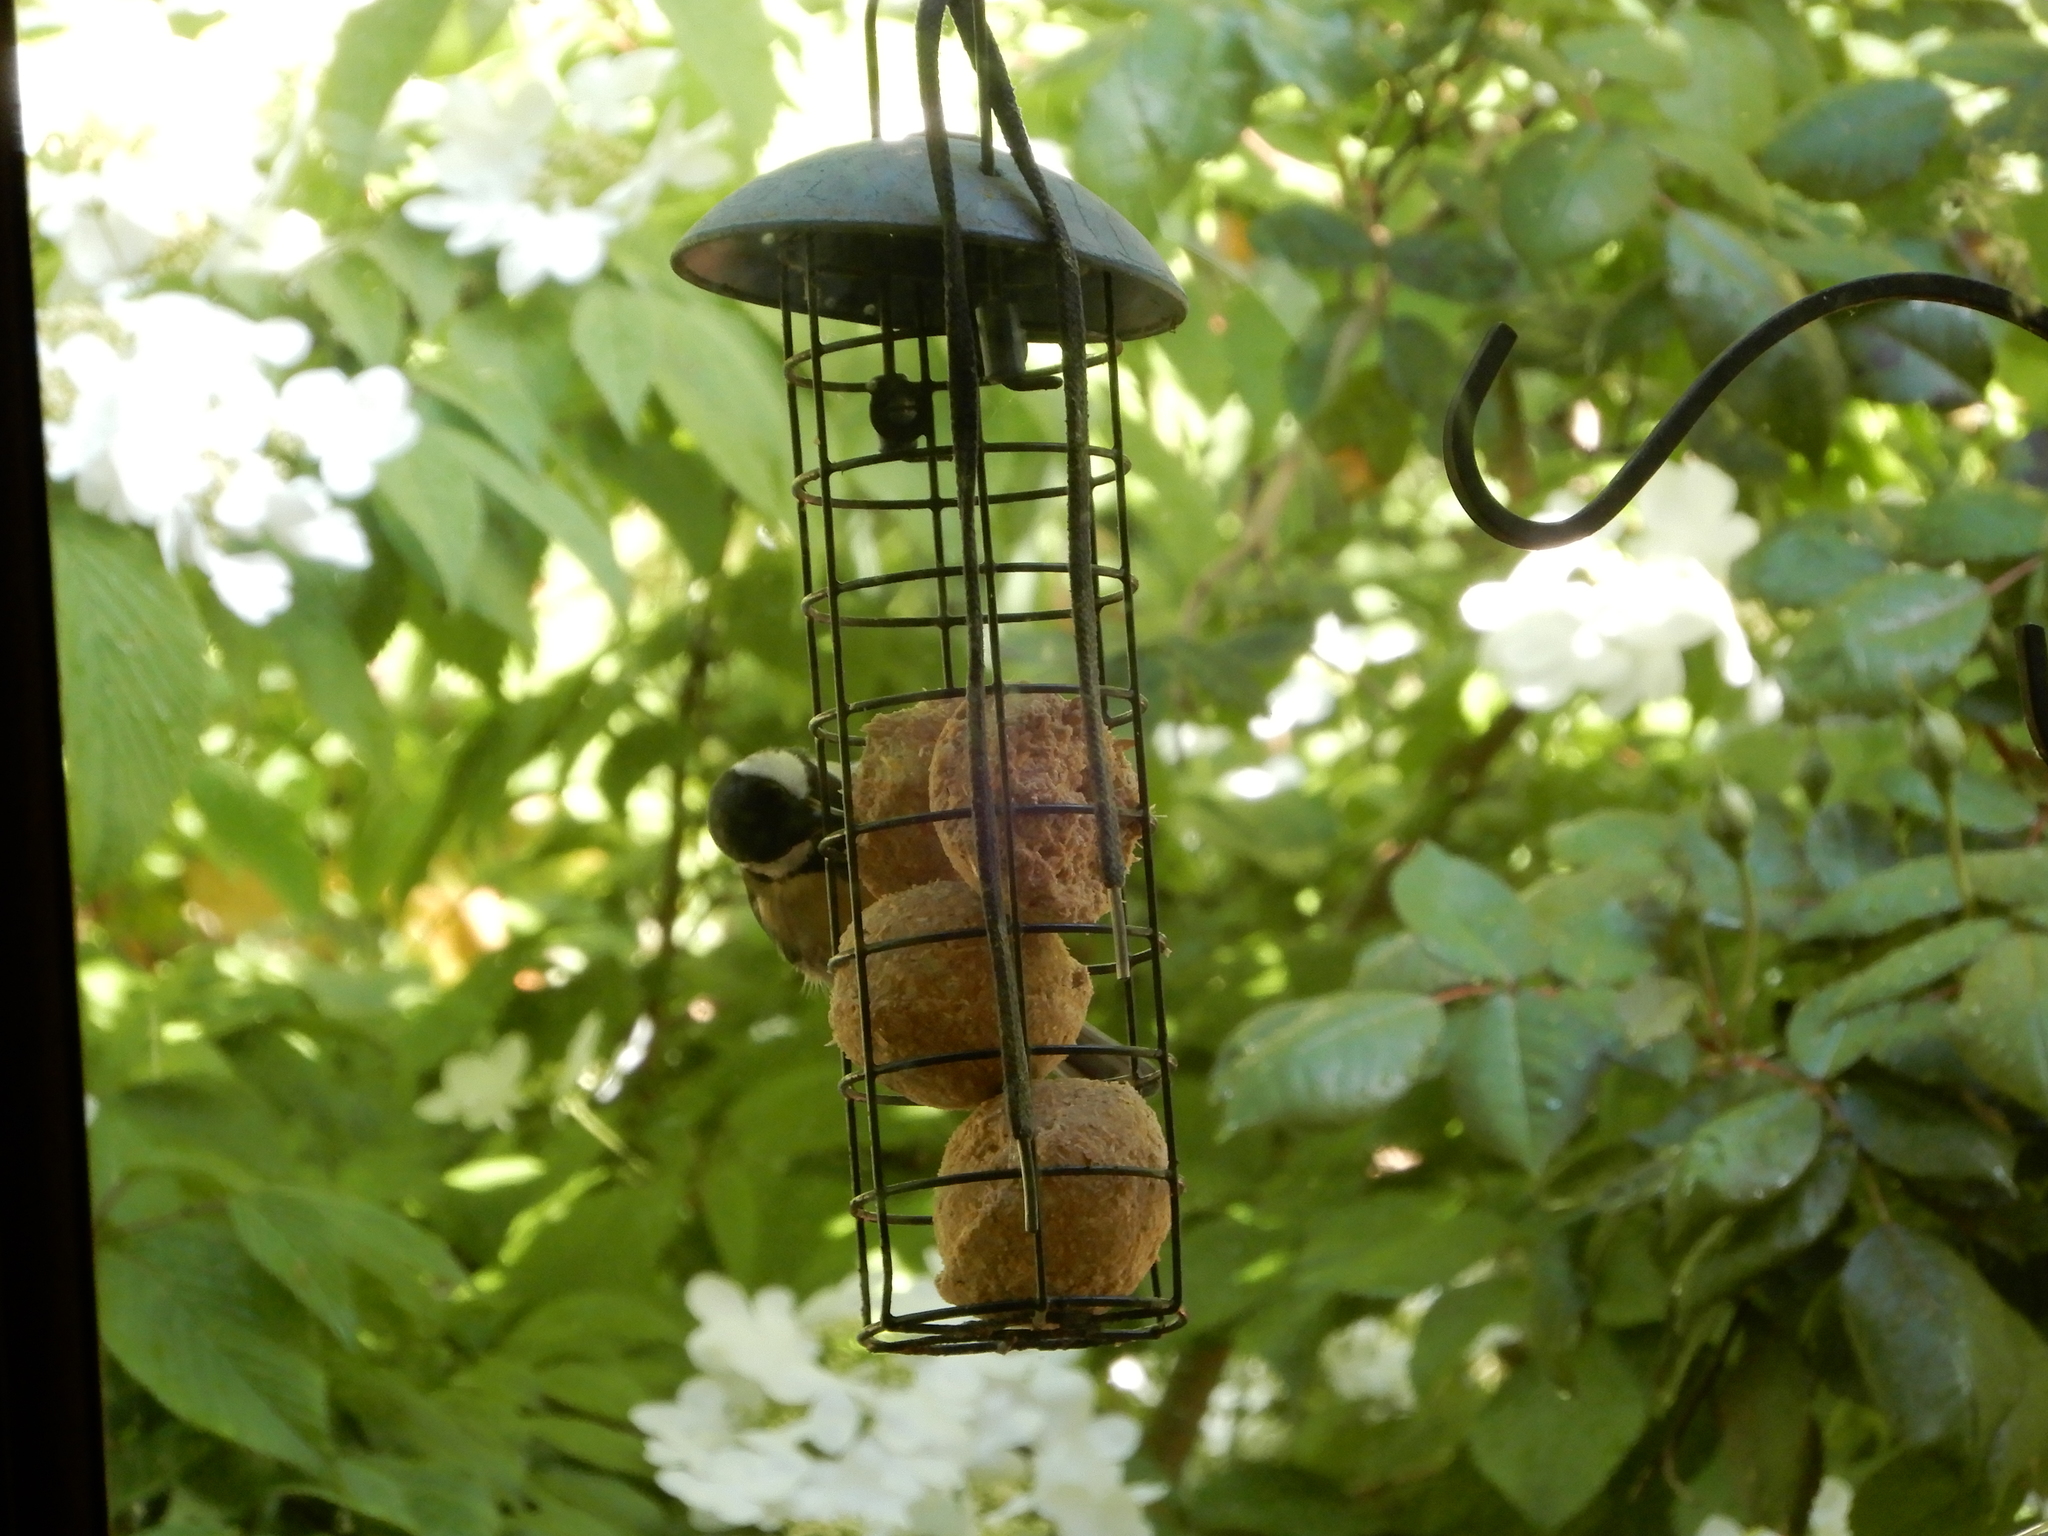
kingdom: Animalia
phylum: Chordata
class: Aves
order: Passeriformes
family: Paridae
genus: Parus
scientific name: Parus major
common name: Great tit
